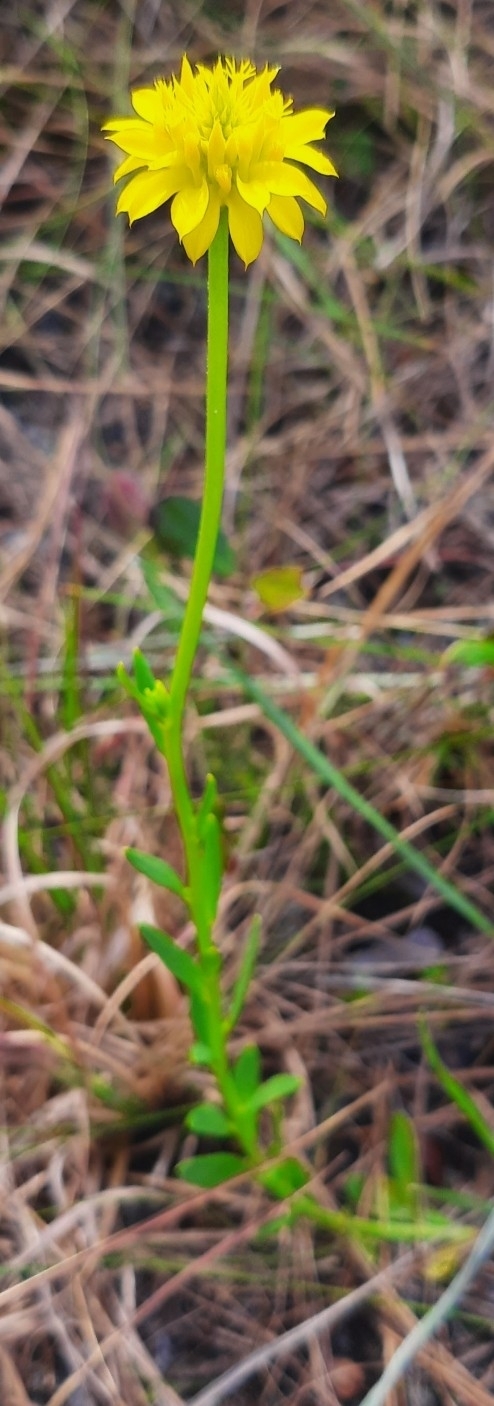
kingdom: Plantae
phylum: Tracheophyta
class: Magnoliopsida
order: Fabales
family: Polygalaceae
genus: Polygala
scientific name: Polygala rugelii
